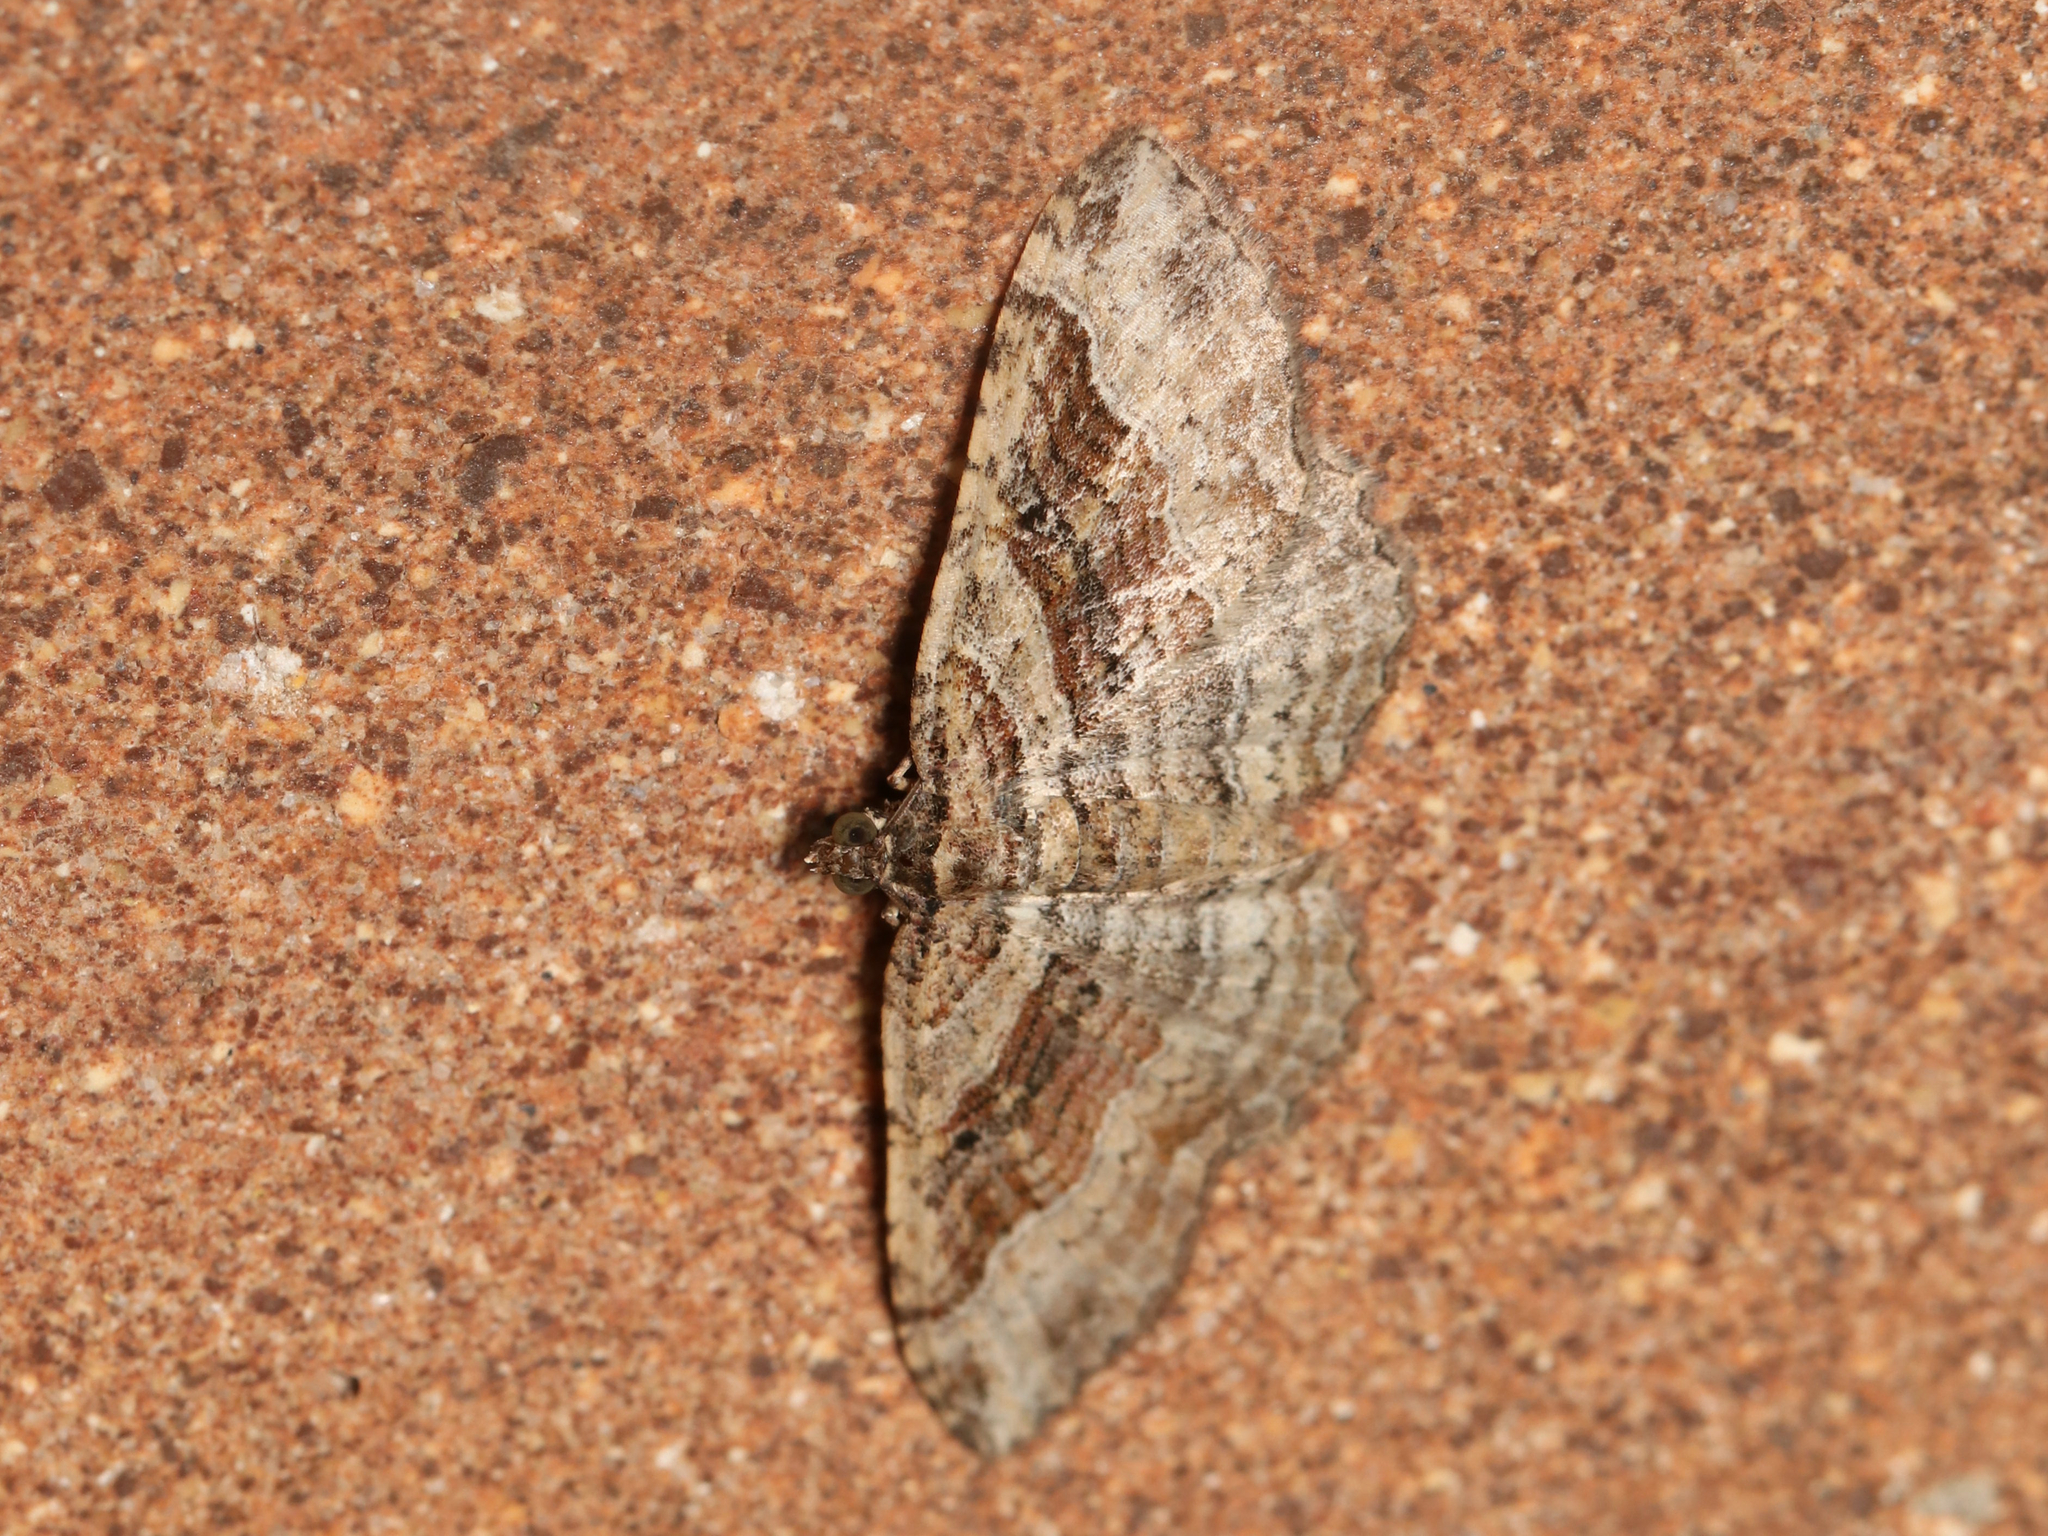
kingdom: Animalia
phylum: Arthropoda
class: Insecta
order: Lepidoptera
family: Geometridae
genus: Costaconvexa
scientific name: Costaconvexa centrostrigaria
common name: Bent-line carpet
